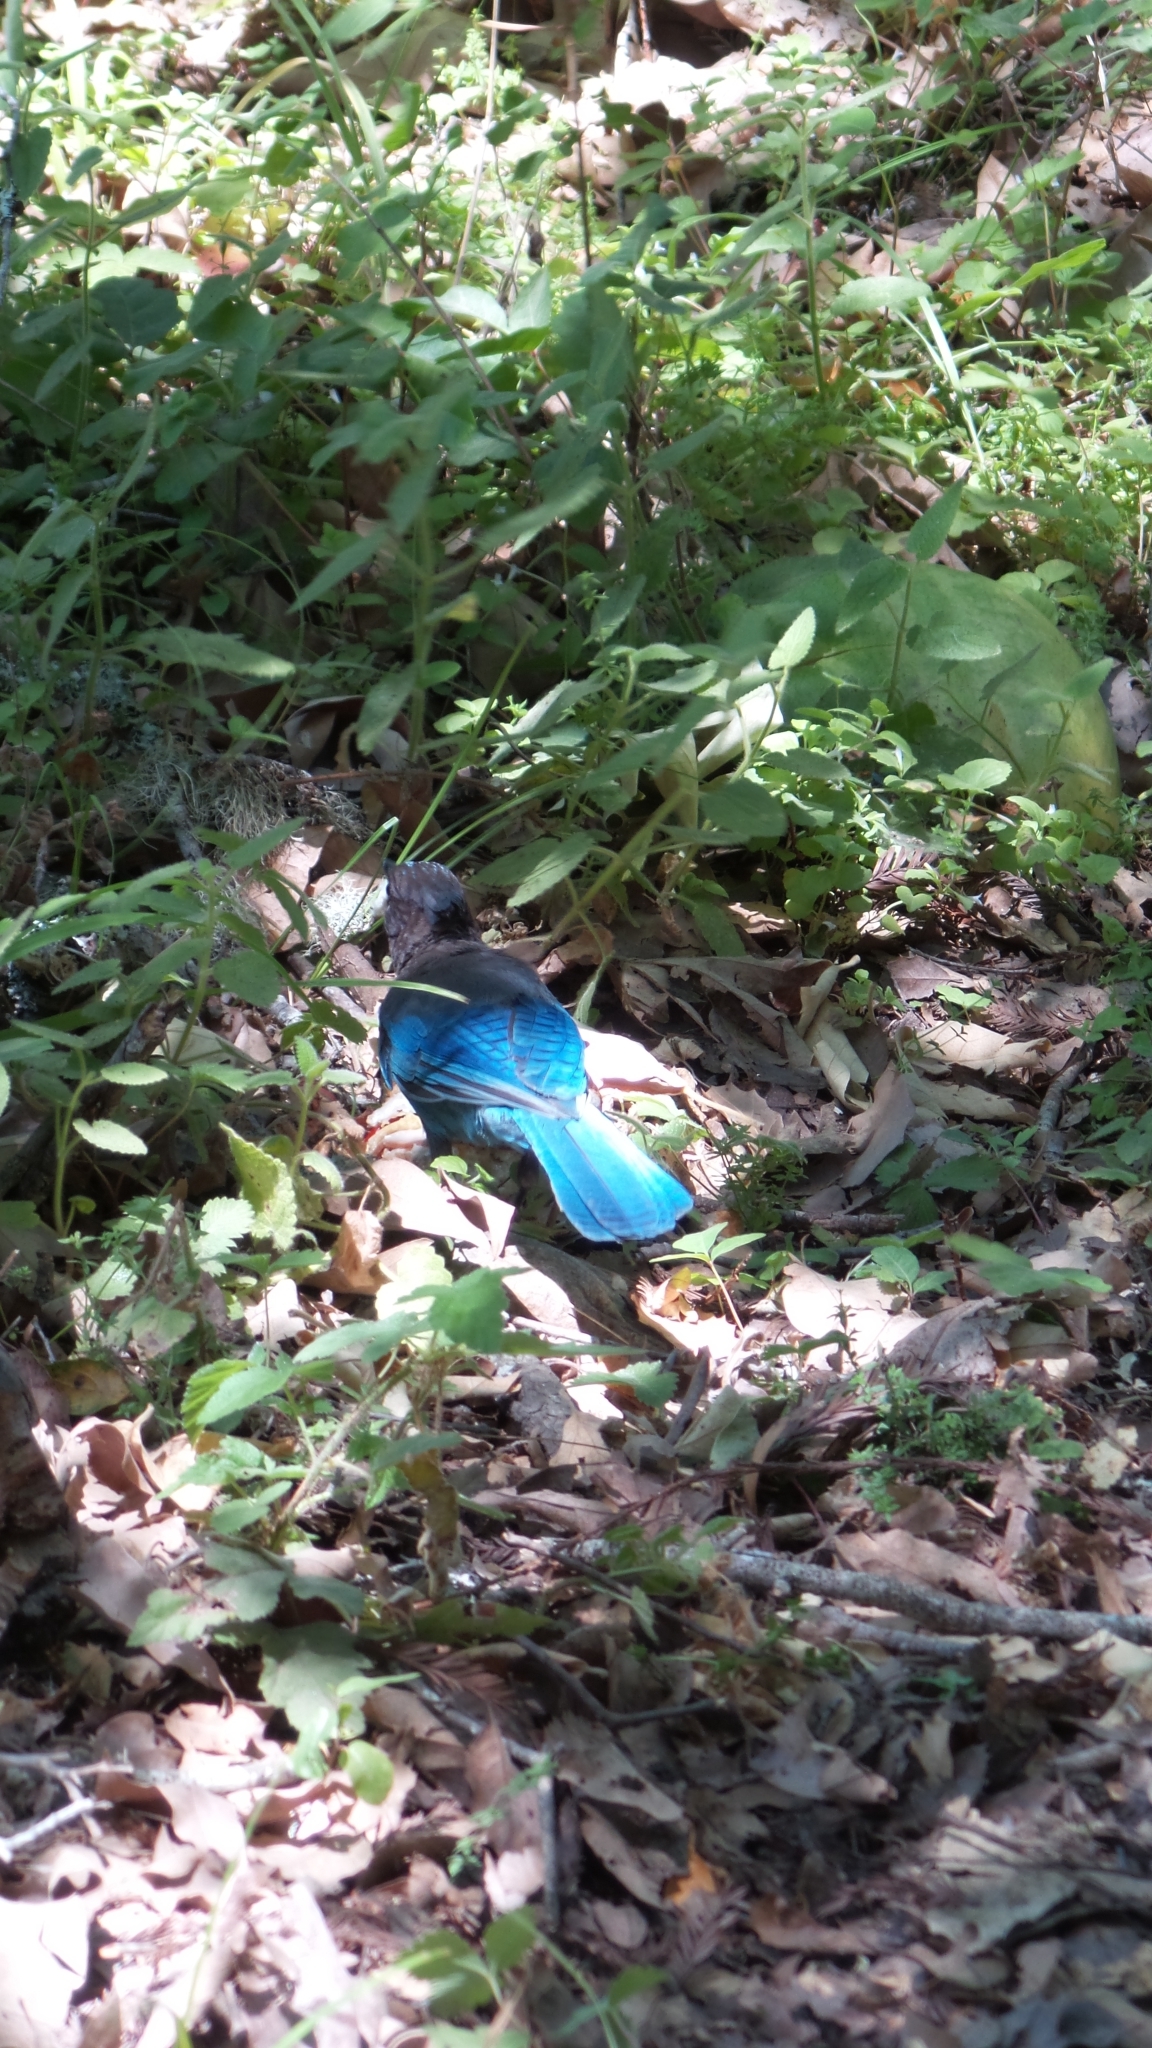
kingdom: Animalia
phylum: Chordata
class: Aves
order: Passeriformes
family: Corvidae
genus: Cyanocitta
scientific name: Cyanocitta stelleri
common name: Steller's jay
